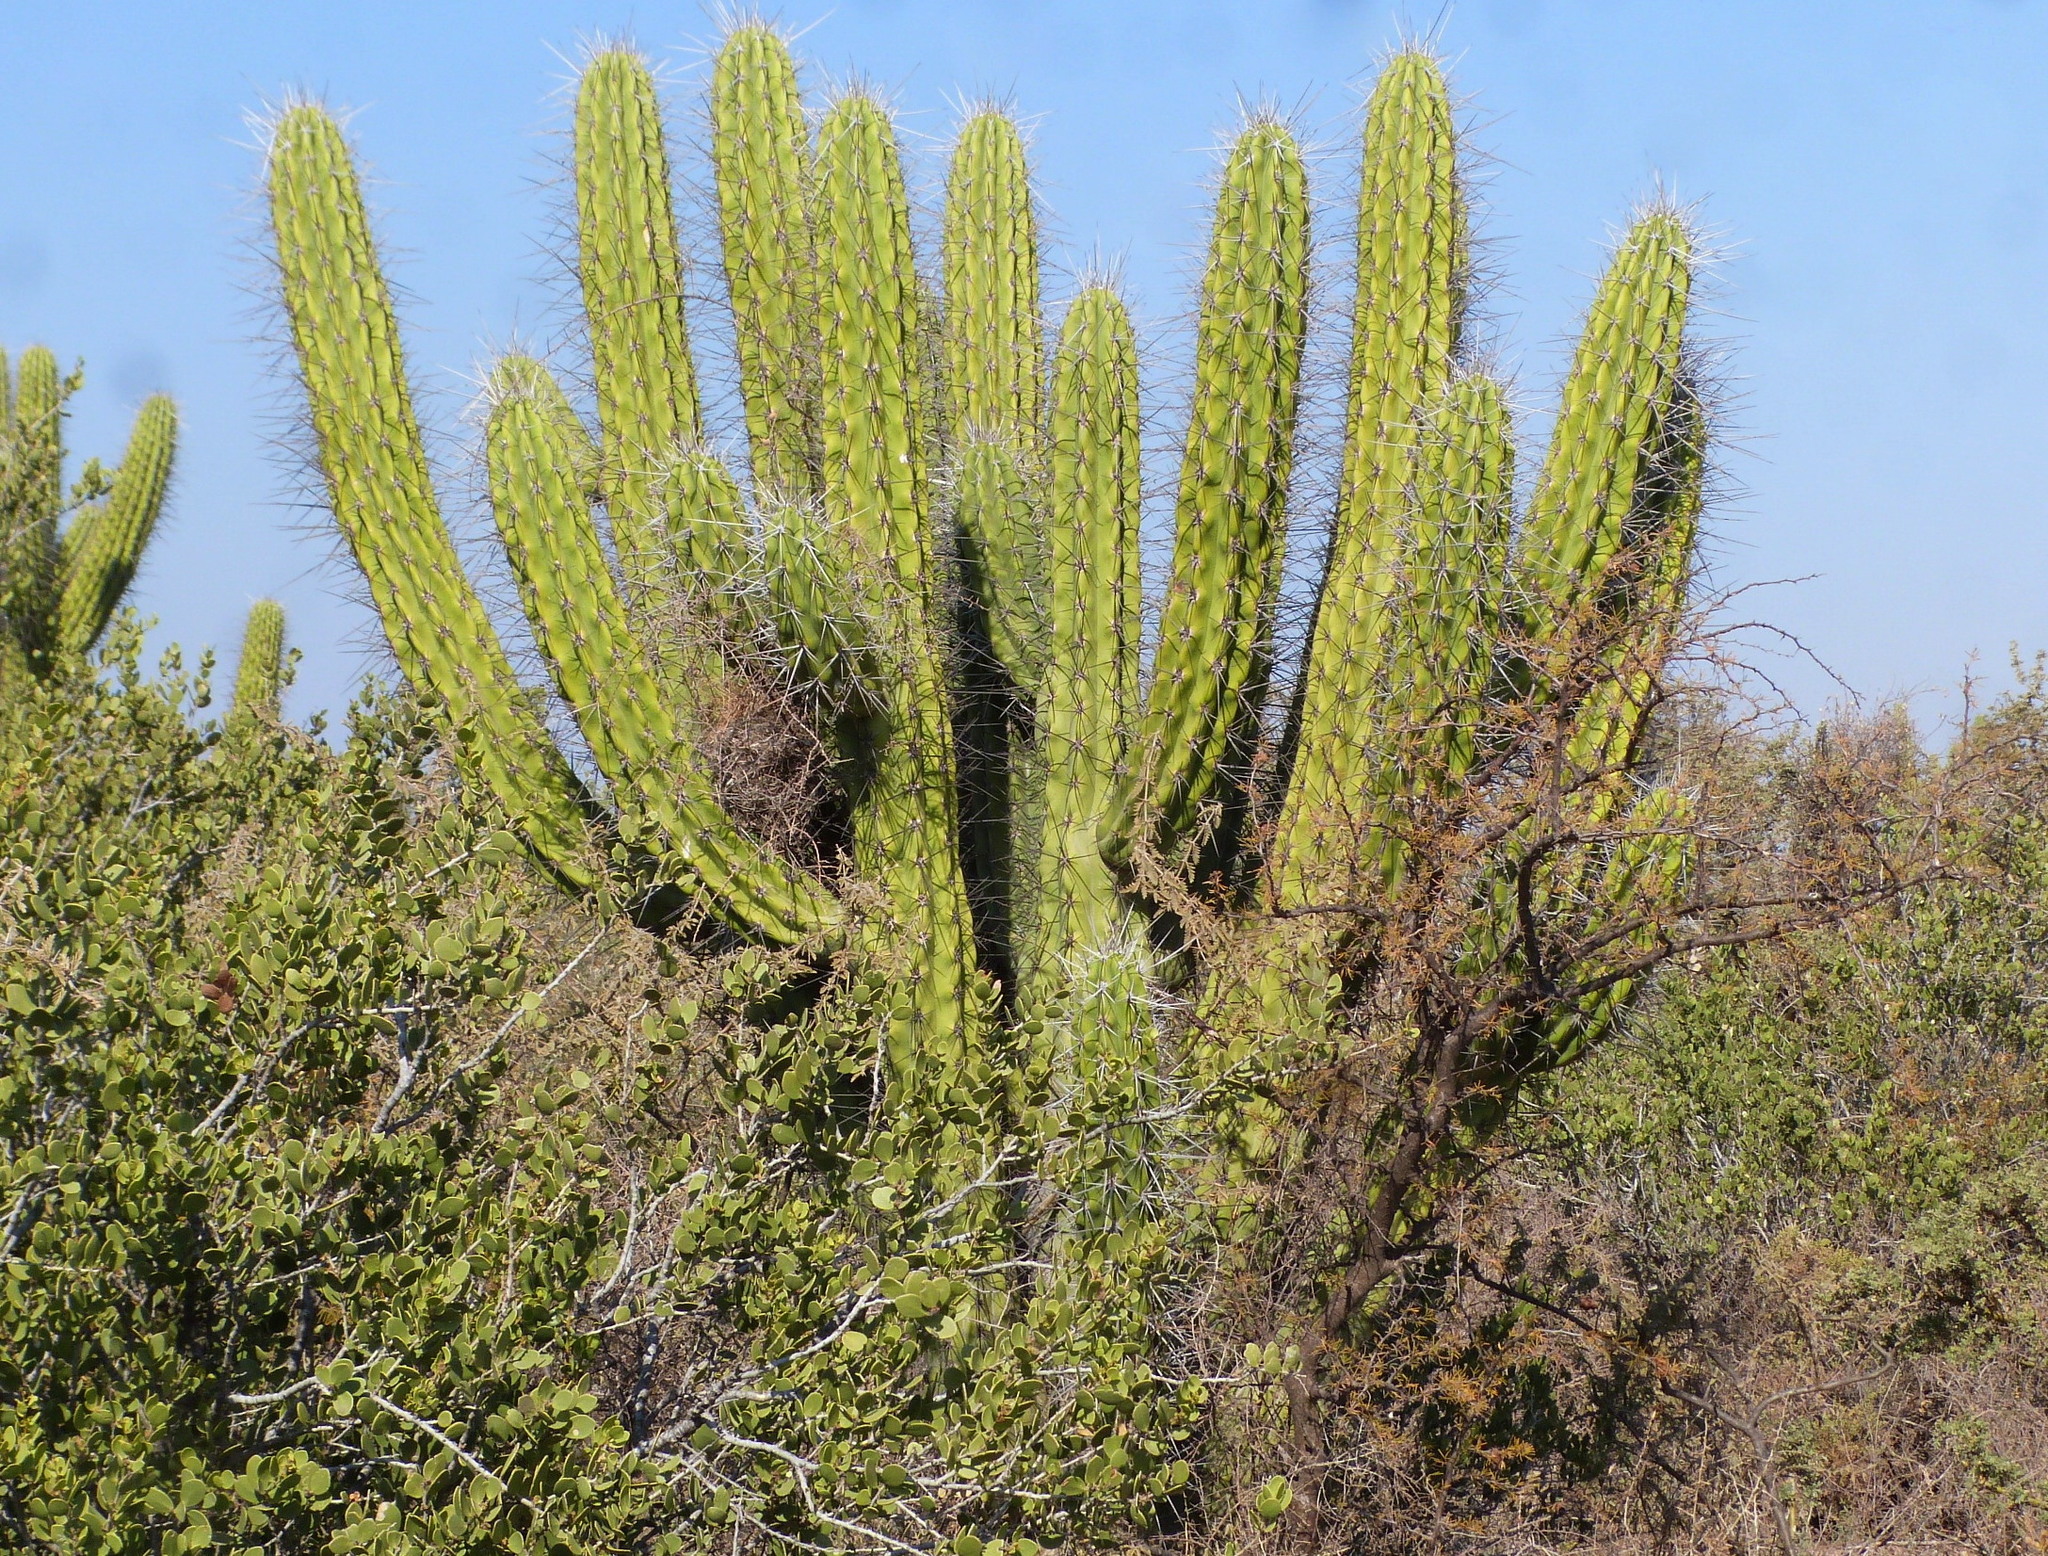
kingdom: Plantae
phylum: Tracheophyta
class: Magnoliopsida
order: Caryophyllales
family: Cactaceae
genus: Stetsonia
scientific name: Stetsonia coryne
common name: Toothpick cactus
